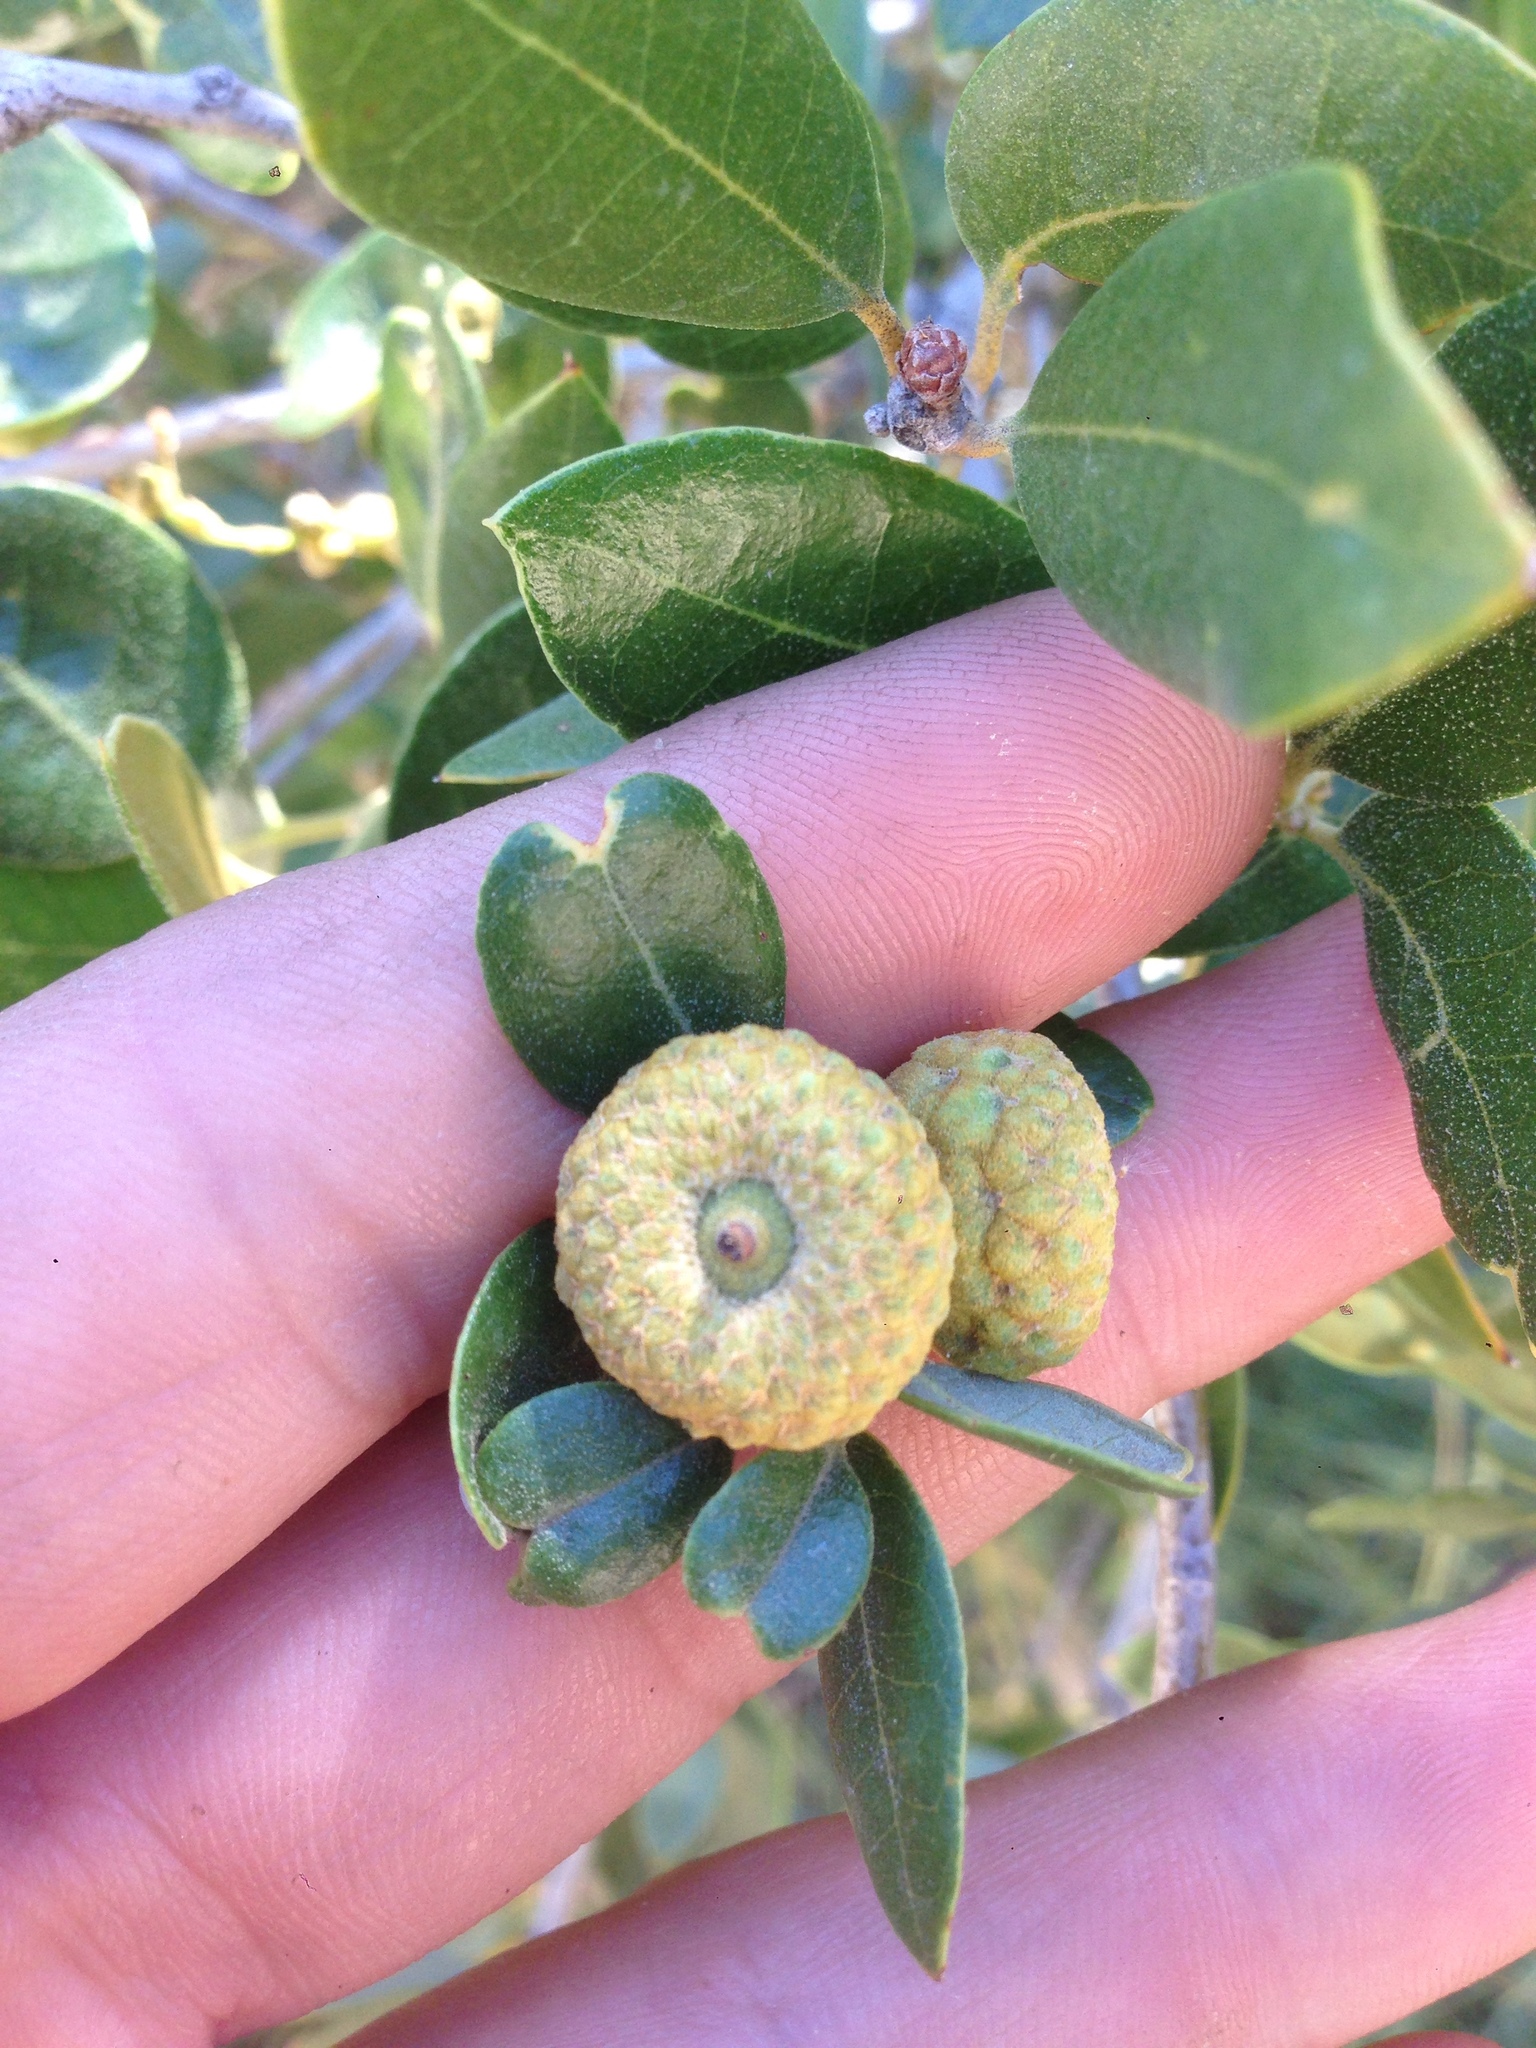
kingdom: Plantae
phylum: Tracheophyta
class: Magnoliopsida
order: Fagales
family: Fagaceae
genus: Quercus
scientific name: Quercus chrysolepis
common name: Canyon live oak
